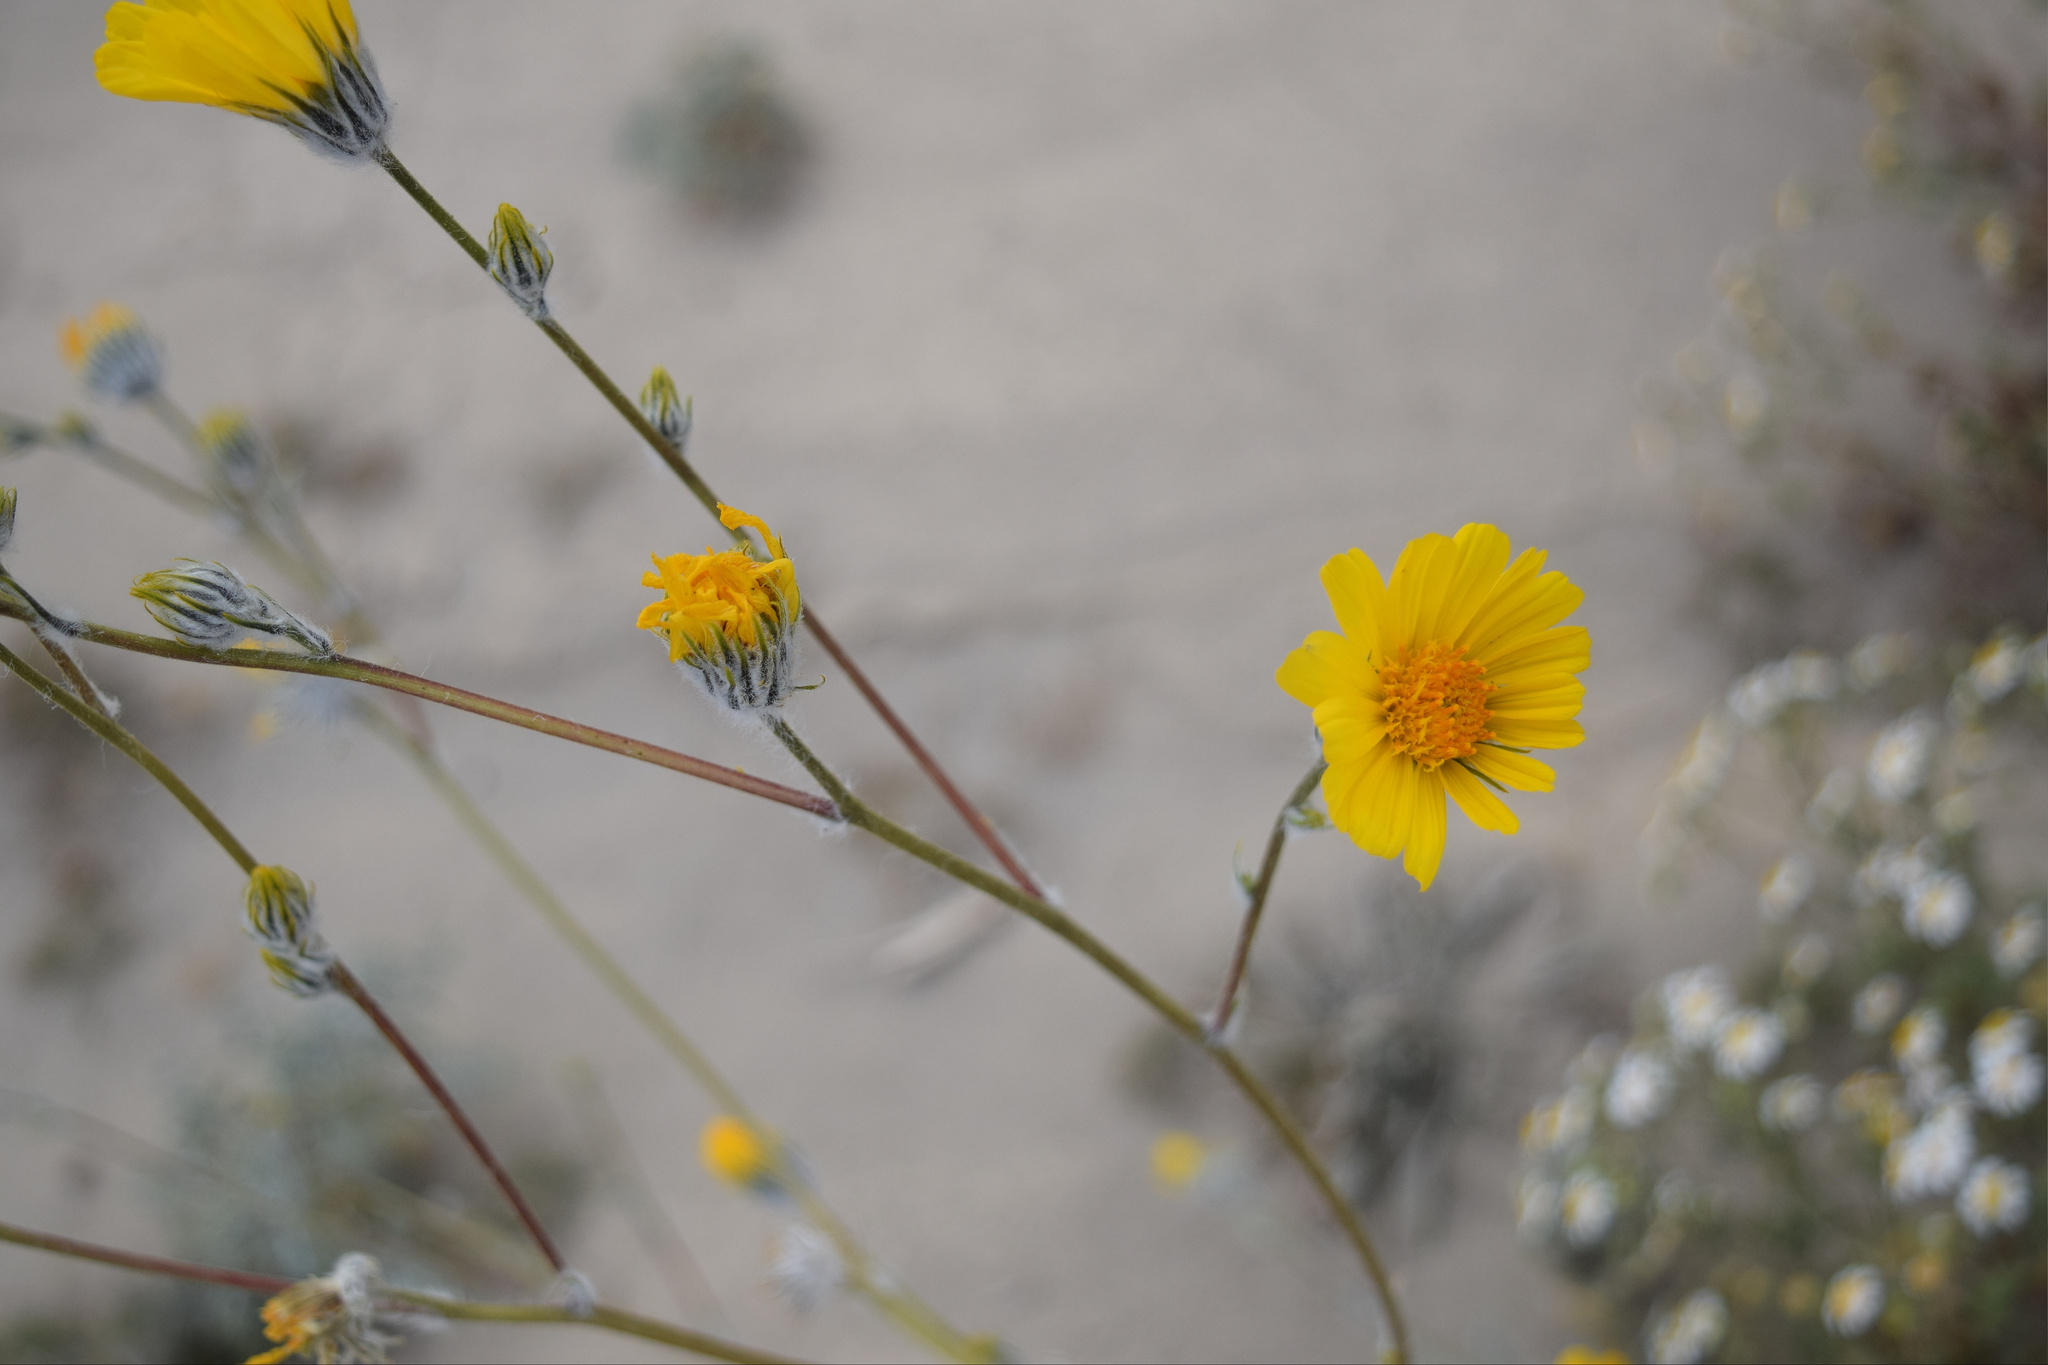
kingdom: Plantae
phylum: Tracheophyta
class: Magnoliopsida
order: Asterales
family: Asteraceae
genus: Geraea
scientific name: Geraea canescens
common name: Desert-gold
